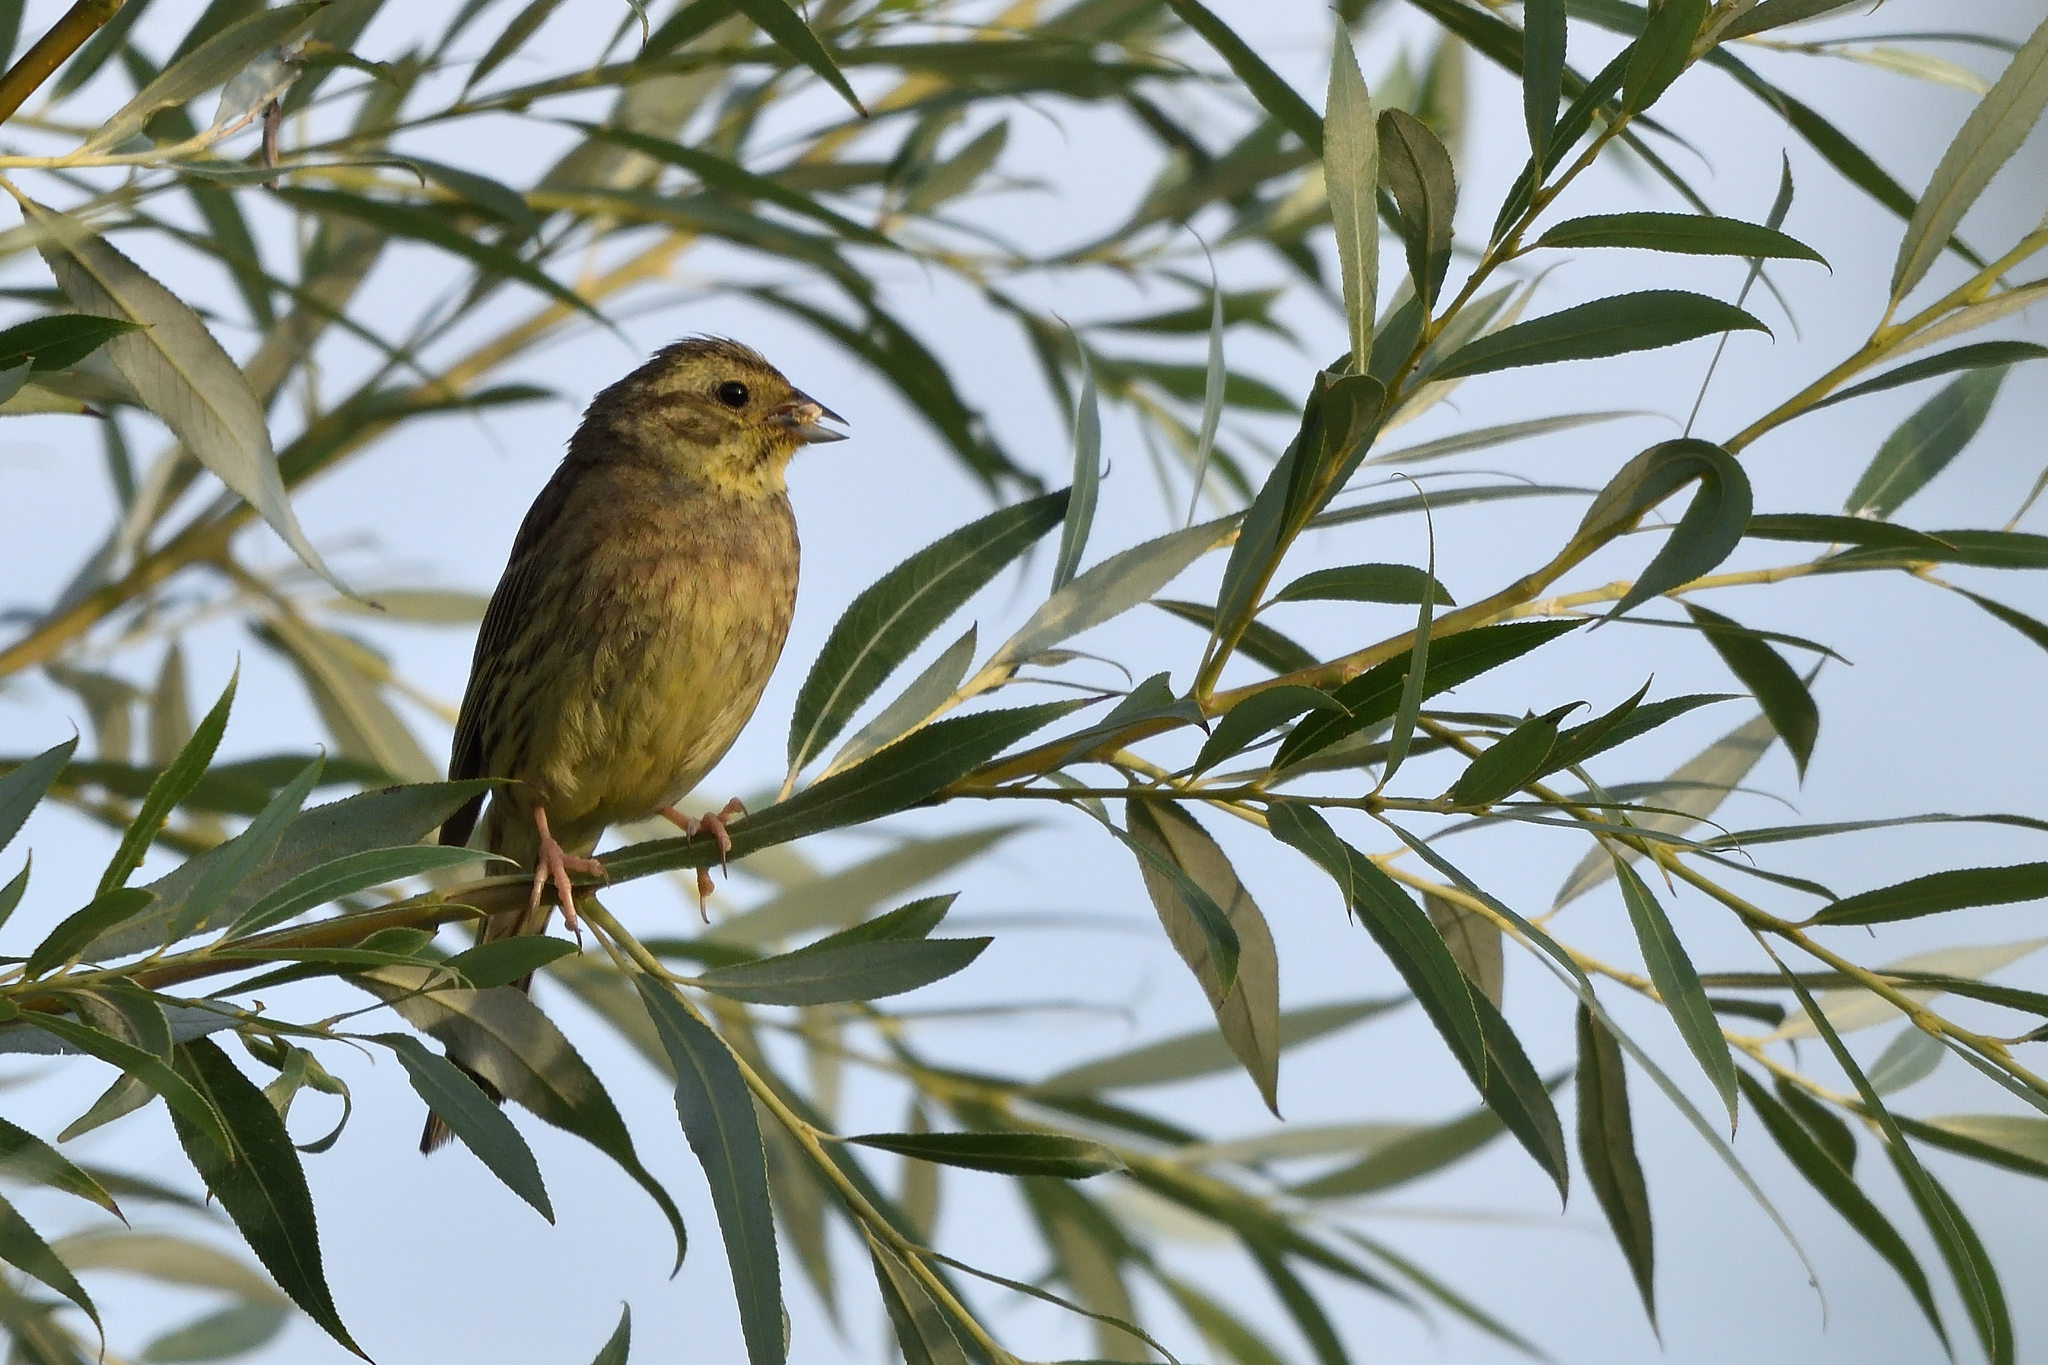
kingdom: Animalia
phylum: Chordata
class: Aves
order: Passeriformes
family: Emberizidae
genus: Emberiza
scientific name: Emberiza citrinella
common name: Yellowhammer
